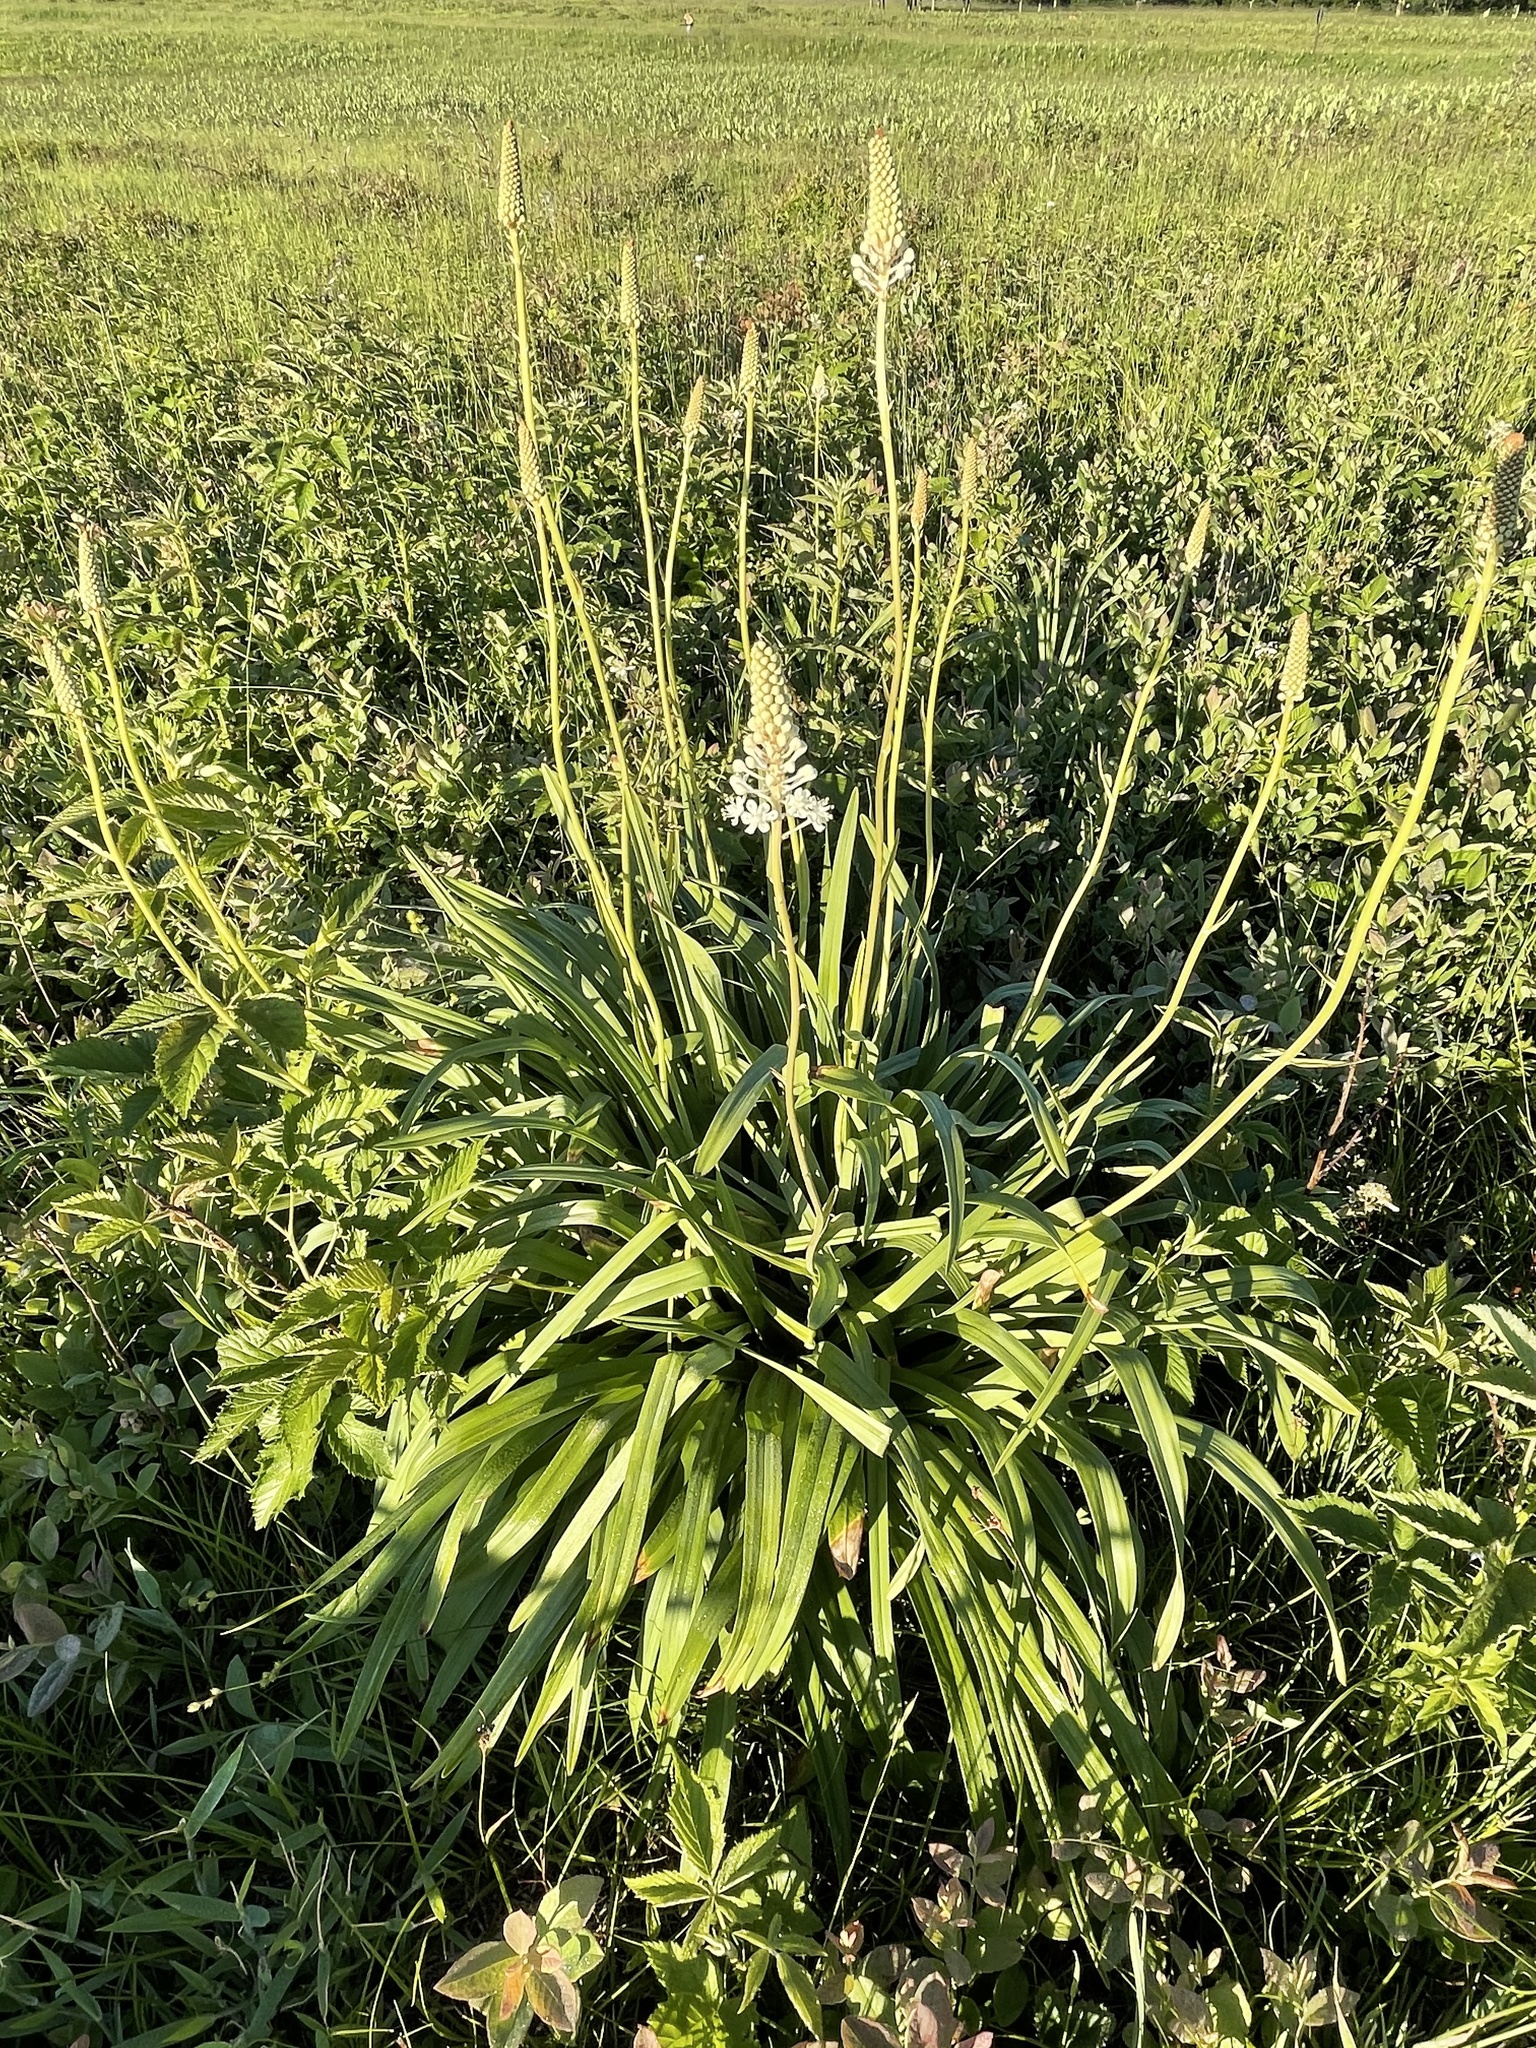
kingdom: Plantae
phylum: Tracheophyta
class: Liliopsida
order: Liliales
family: Melanthiaceae
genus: Amianthium
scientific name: Amianthium muscitoxicum
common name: Fly-poison
